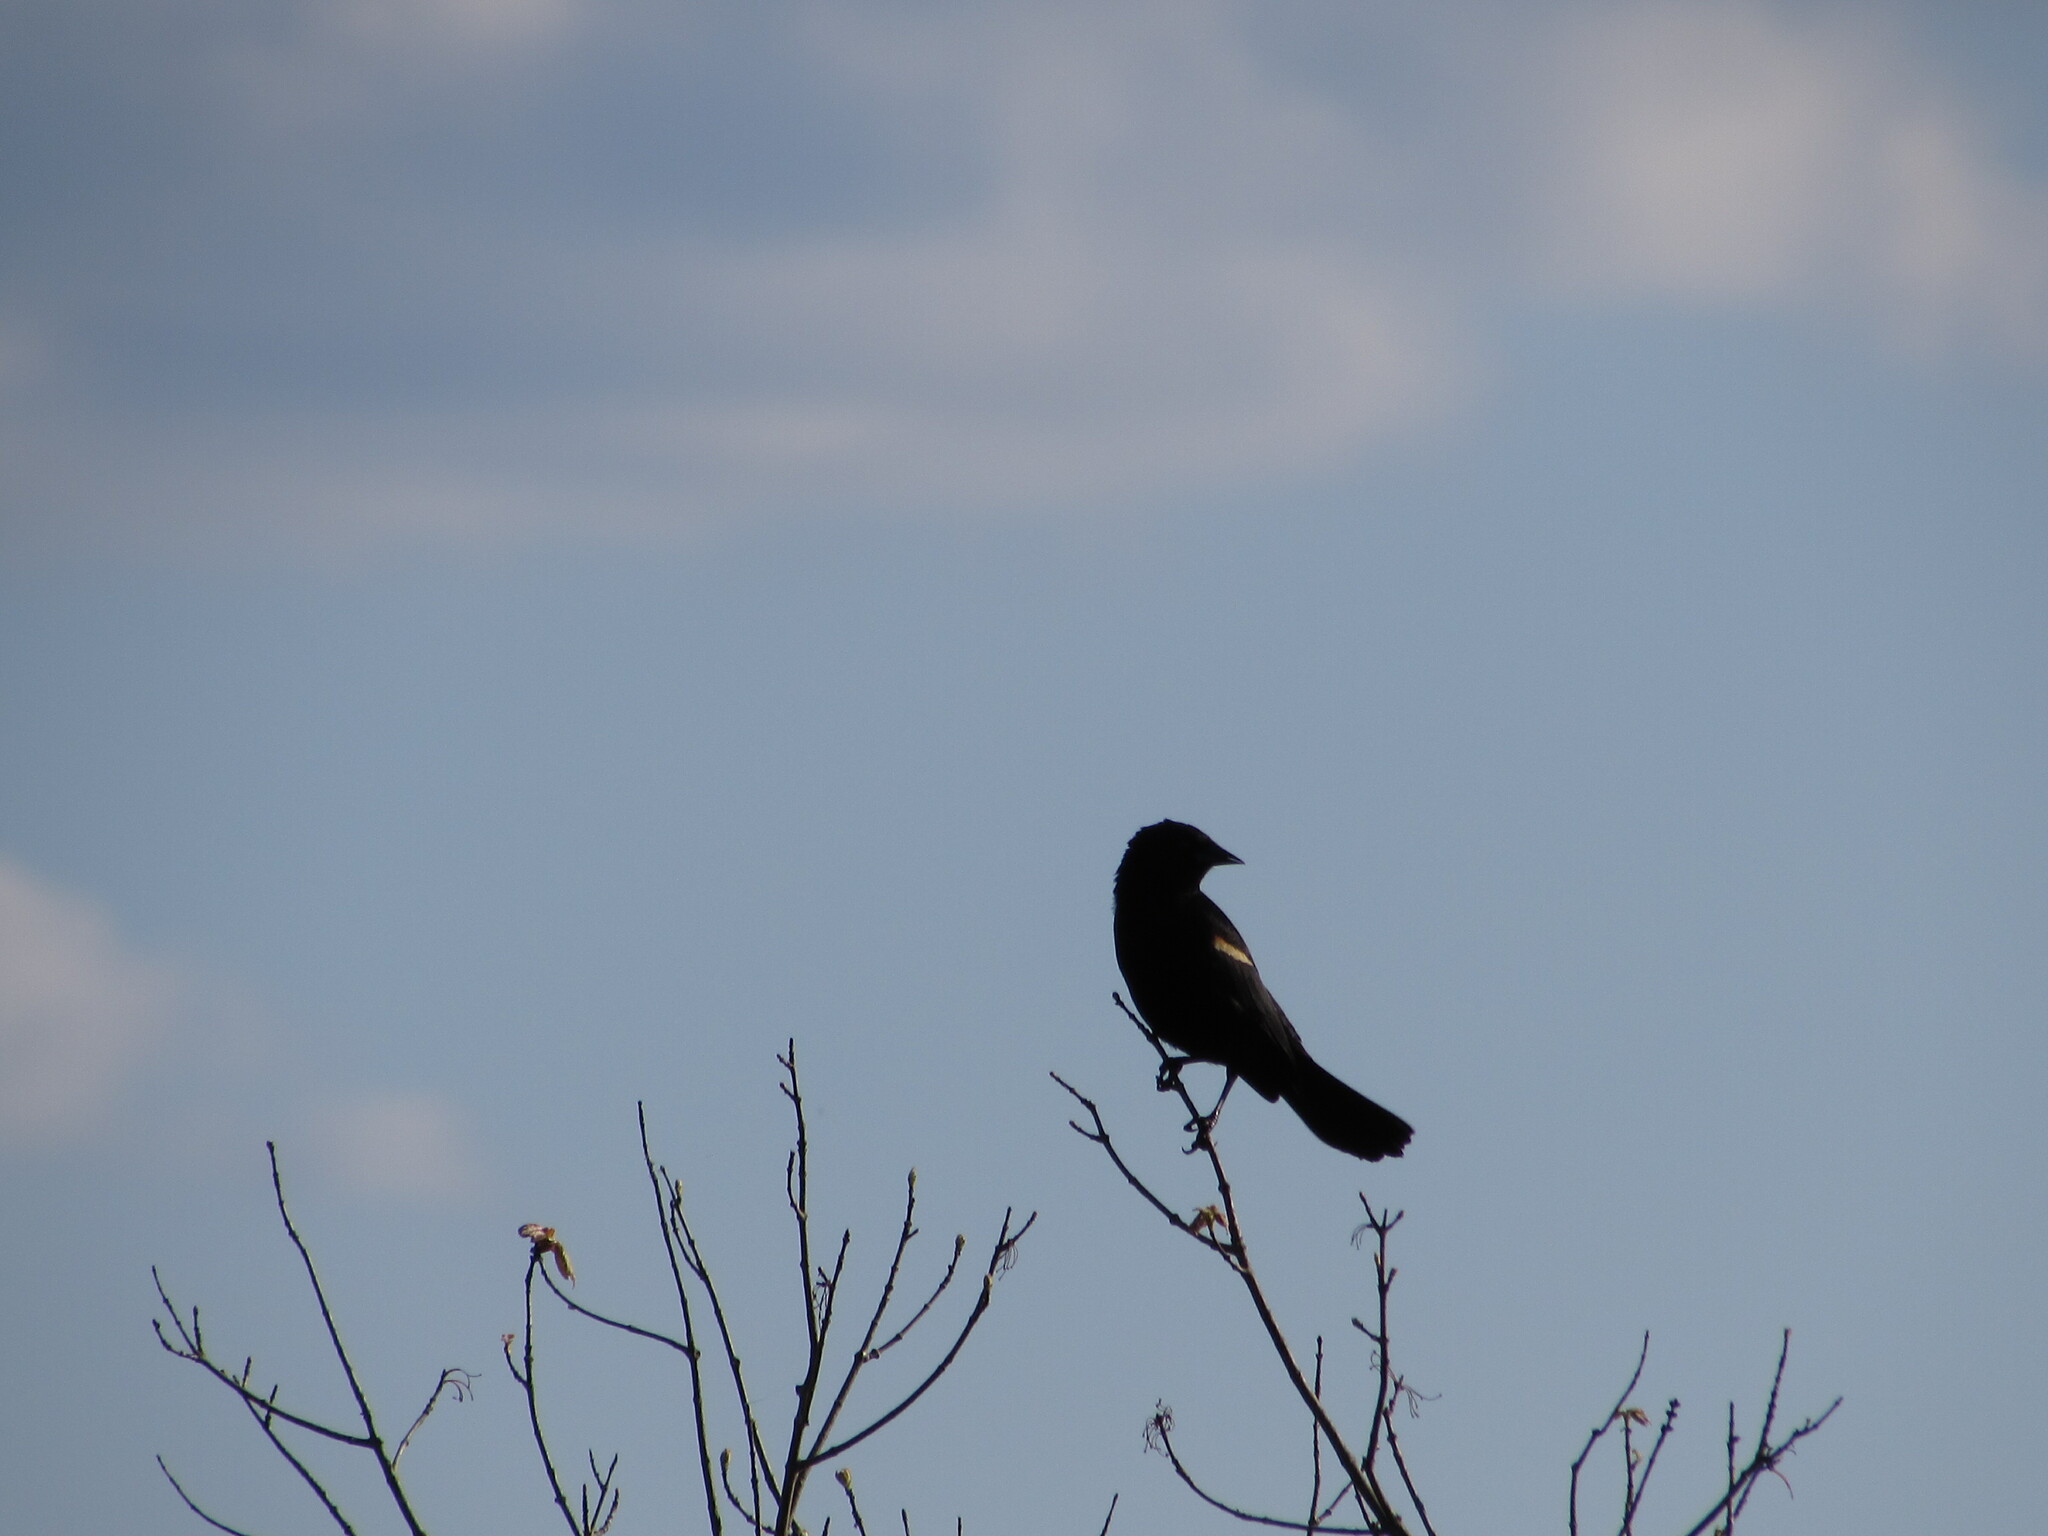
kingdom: Animalia
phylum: Chordata
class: Aves
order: Passeriformes
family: Icteridae
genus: Agelaius
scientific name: Agelaius phoeniceus
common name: Red-winged blackbird
